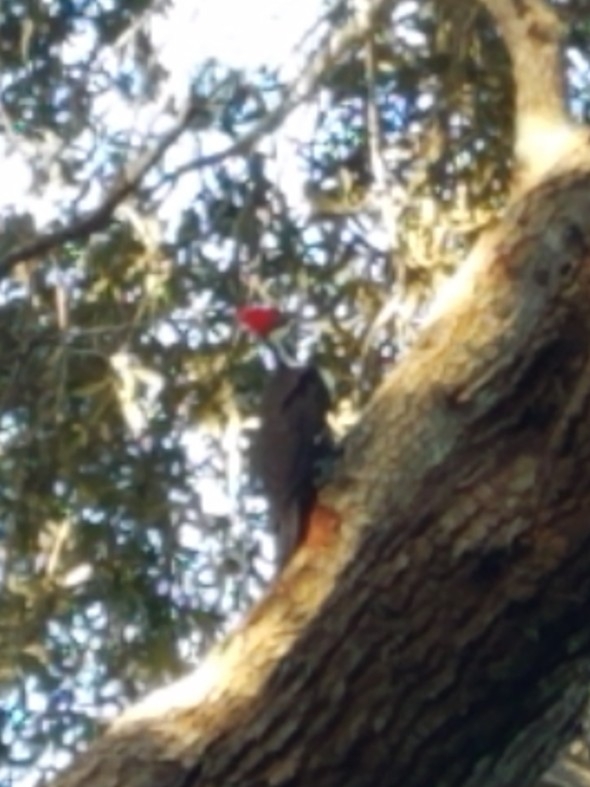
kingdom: Animalia
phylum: Chordata
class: Aves
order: Piciformes
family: Picidae
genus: Dryocopus
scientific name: Dryocopus pileatus
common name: Pileated woodpecker
